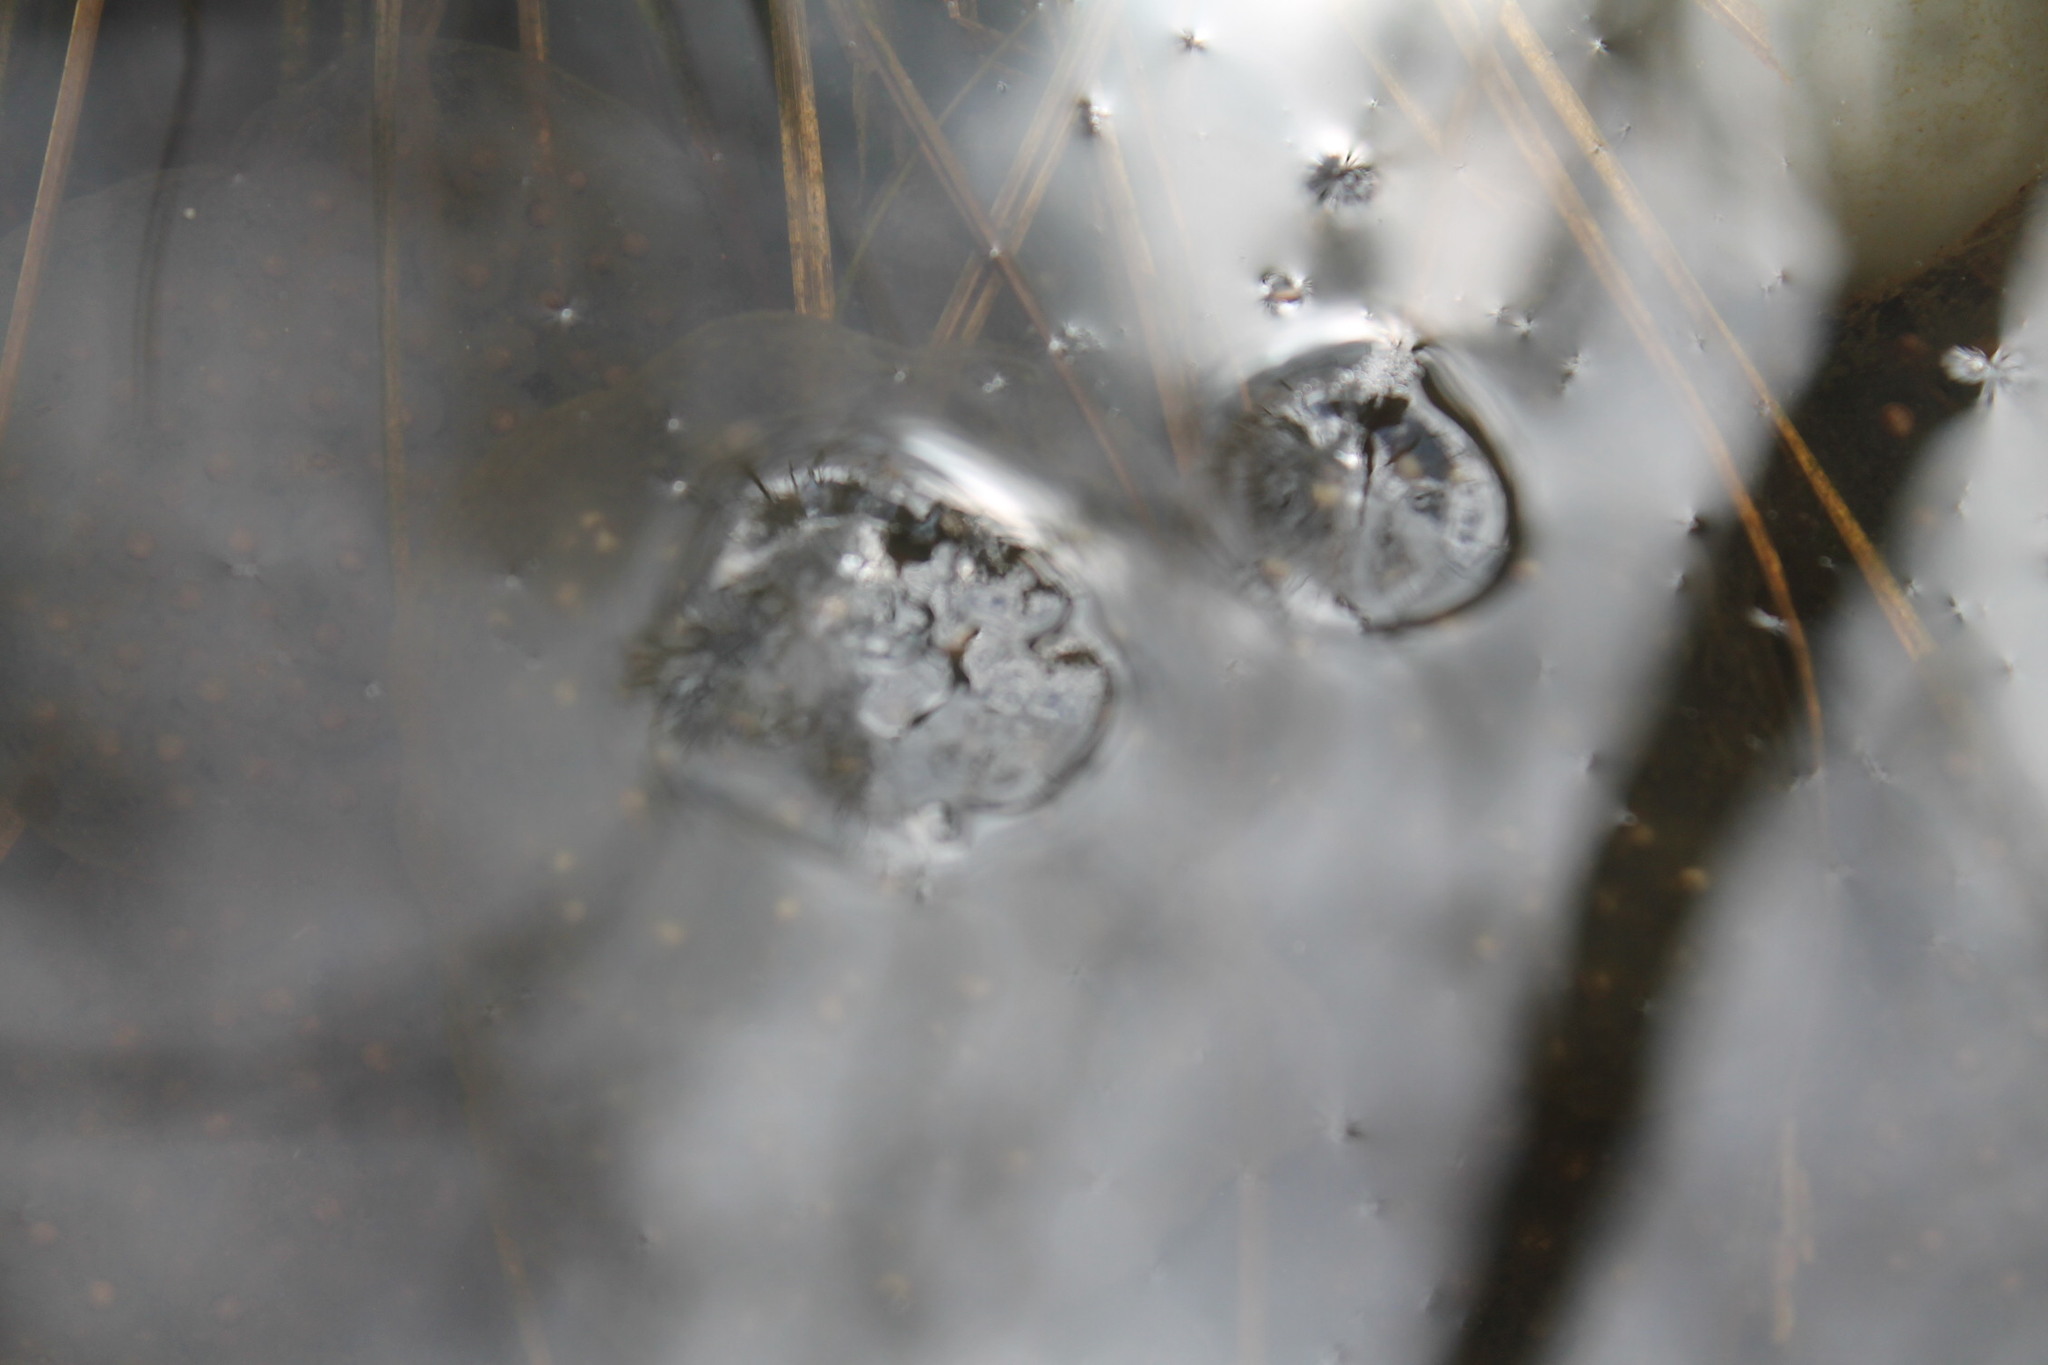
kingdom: Animalia
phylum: Chordata
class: Amphibia
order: Caudata
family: Ambystomatidae
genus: Ambystoma
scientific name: Ambystoma maculatum
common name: Spotted salamander
